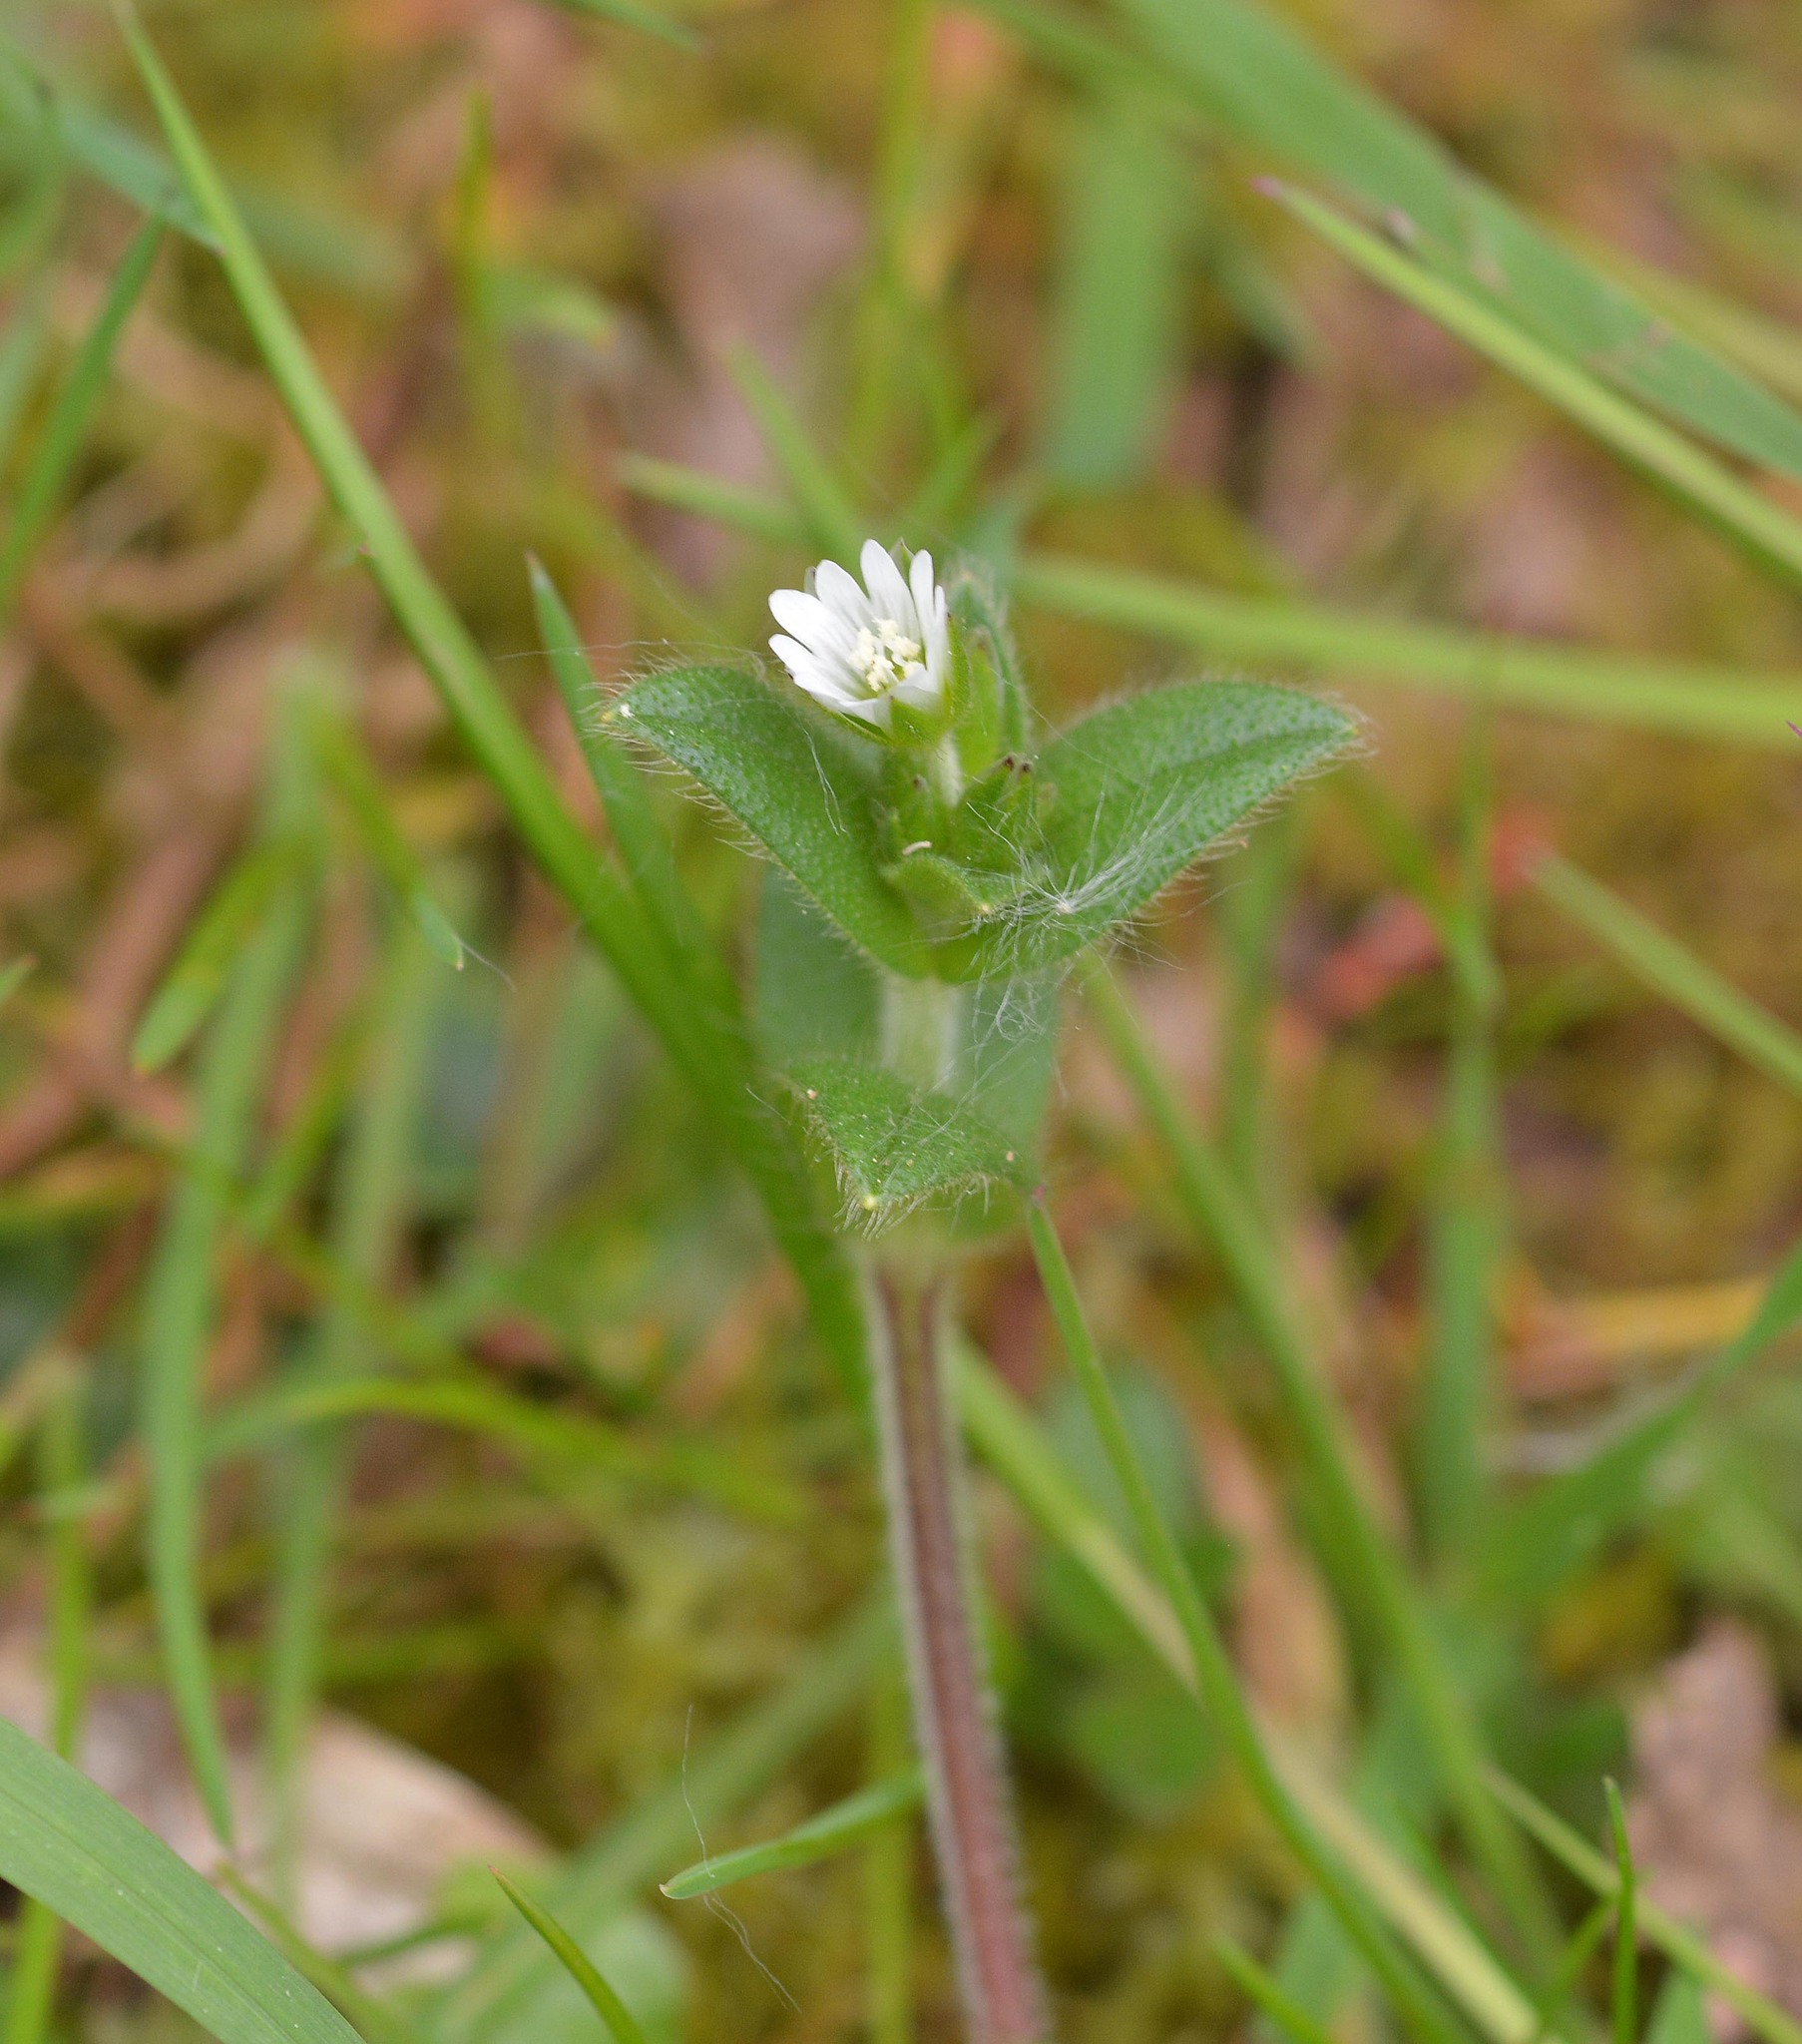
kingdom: Plantae
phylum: Tracheophyta
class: Magnoliopsida
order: Caryophyllales
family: Caryophyllaceae
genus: Cerastium
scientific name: Cerastium fontanum
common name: Common mouse-ear
